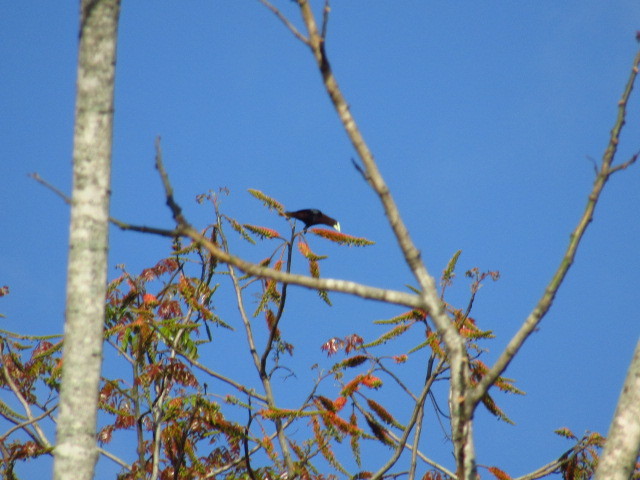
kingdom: Animalia
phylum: Chordata
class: Aves
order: Passeriformes
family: Icteridae
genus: Psarocolius
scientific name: Psarocolius wagleri
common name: Chestnut-headed oropendola
